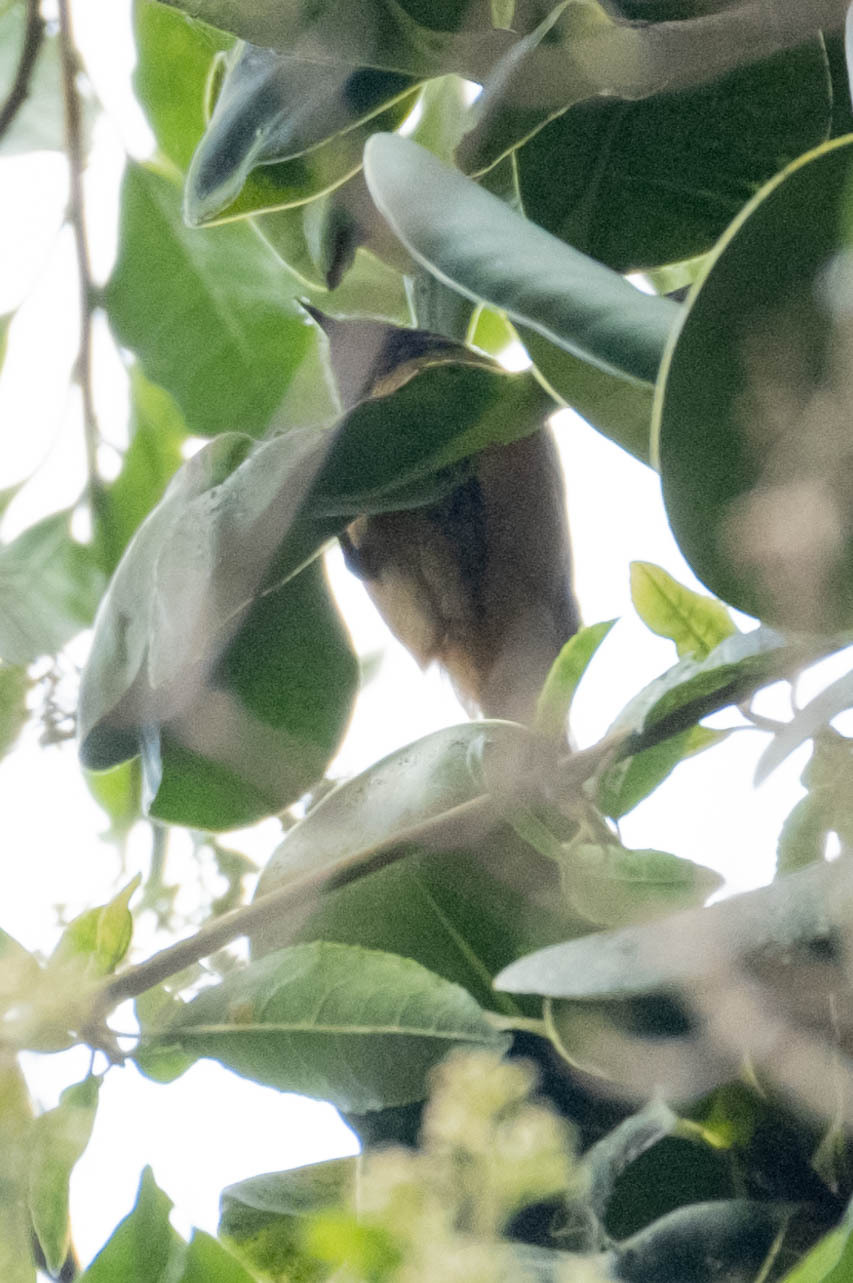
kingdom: Animalia
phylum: Chordata
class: Aves
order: Passeriformes
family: Thraupidae
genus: Conirostrum
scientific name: Conirostrum sitticolor
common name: Blue-backed conebill
